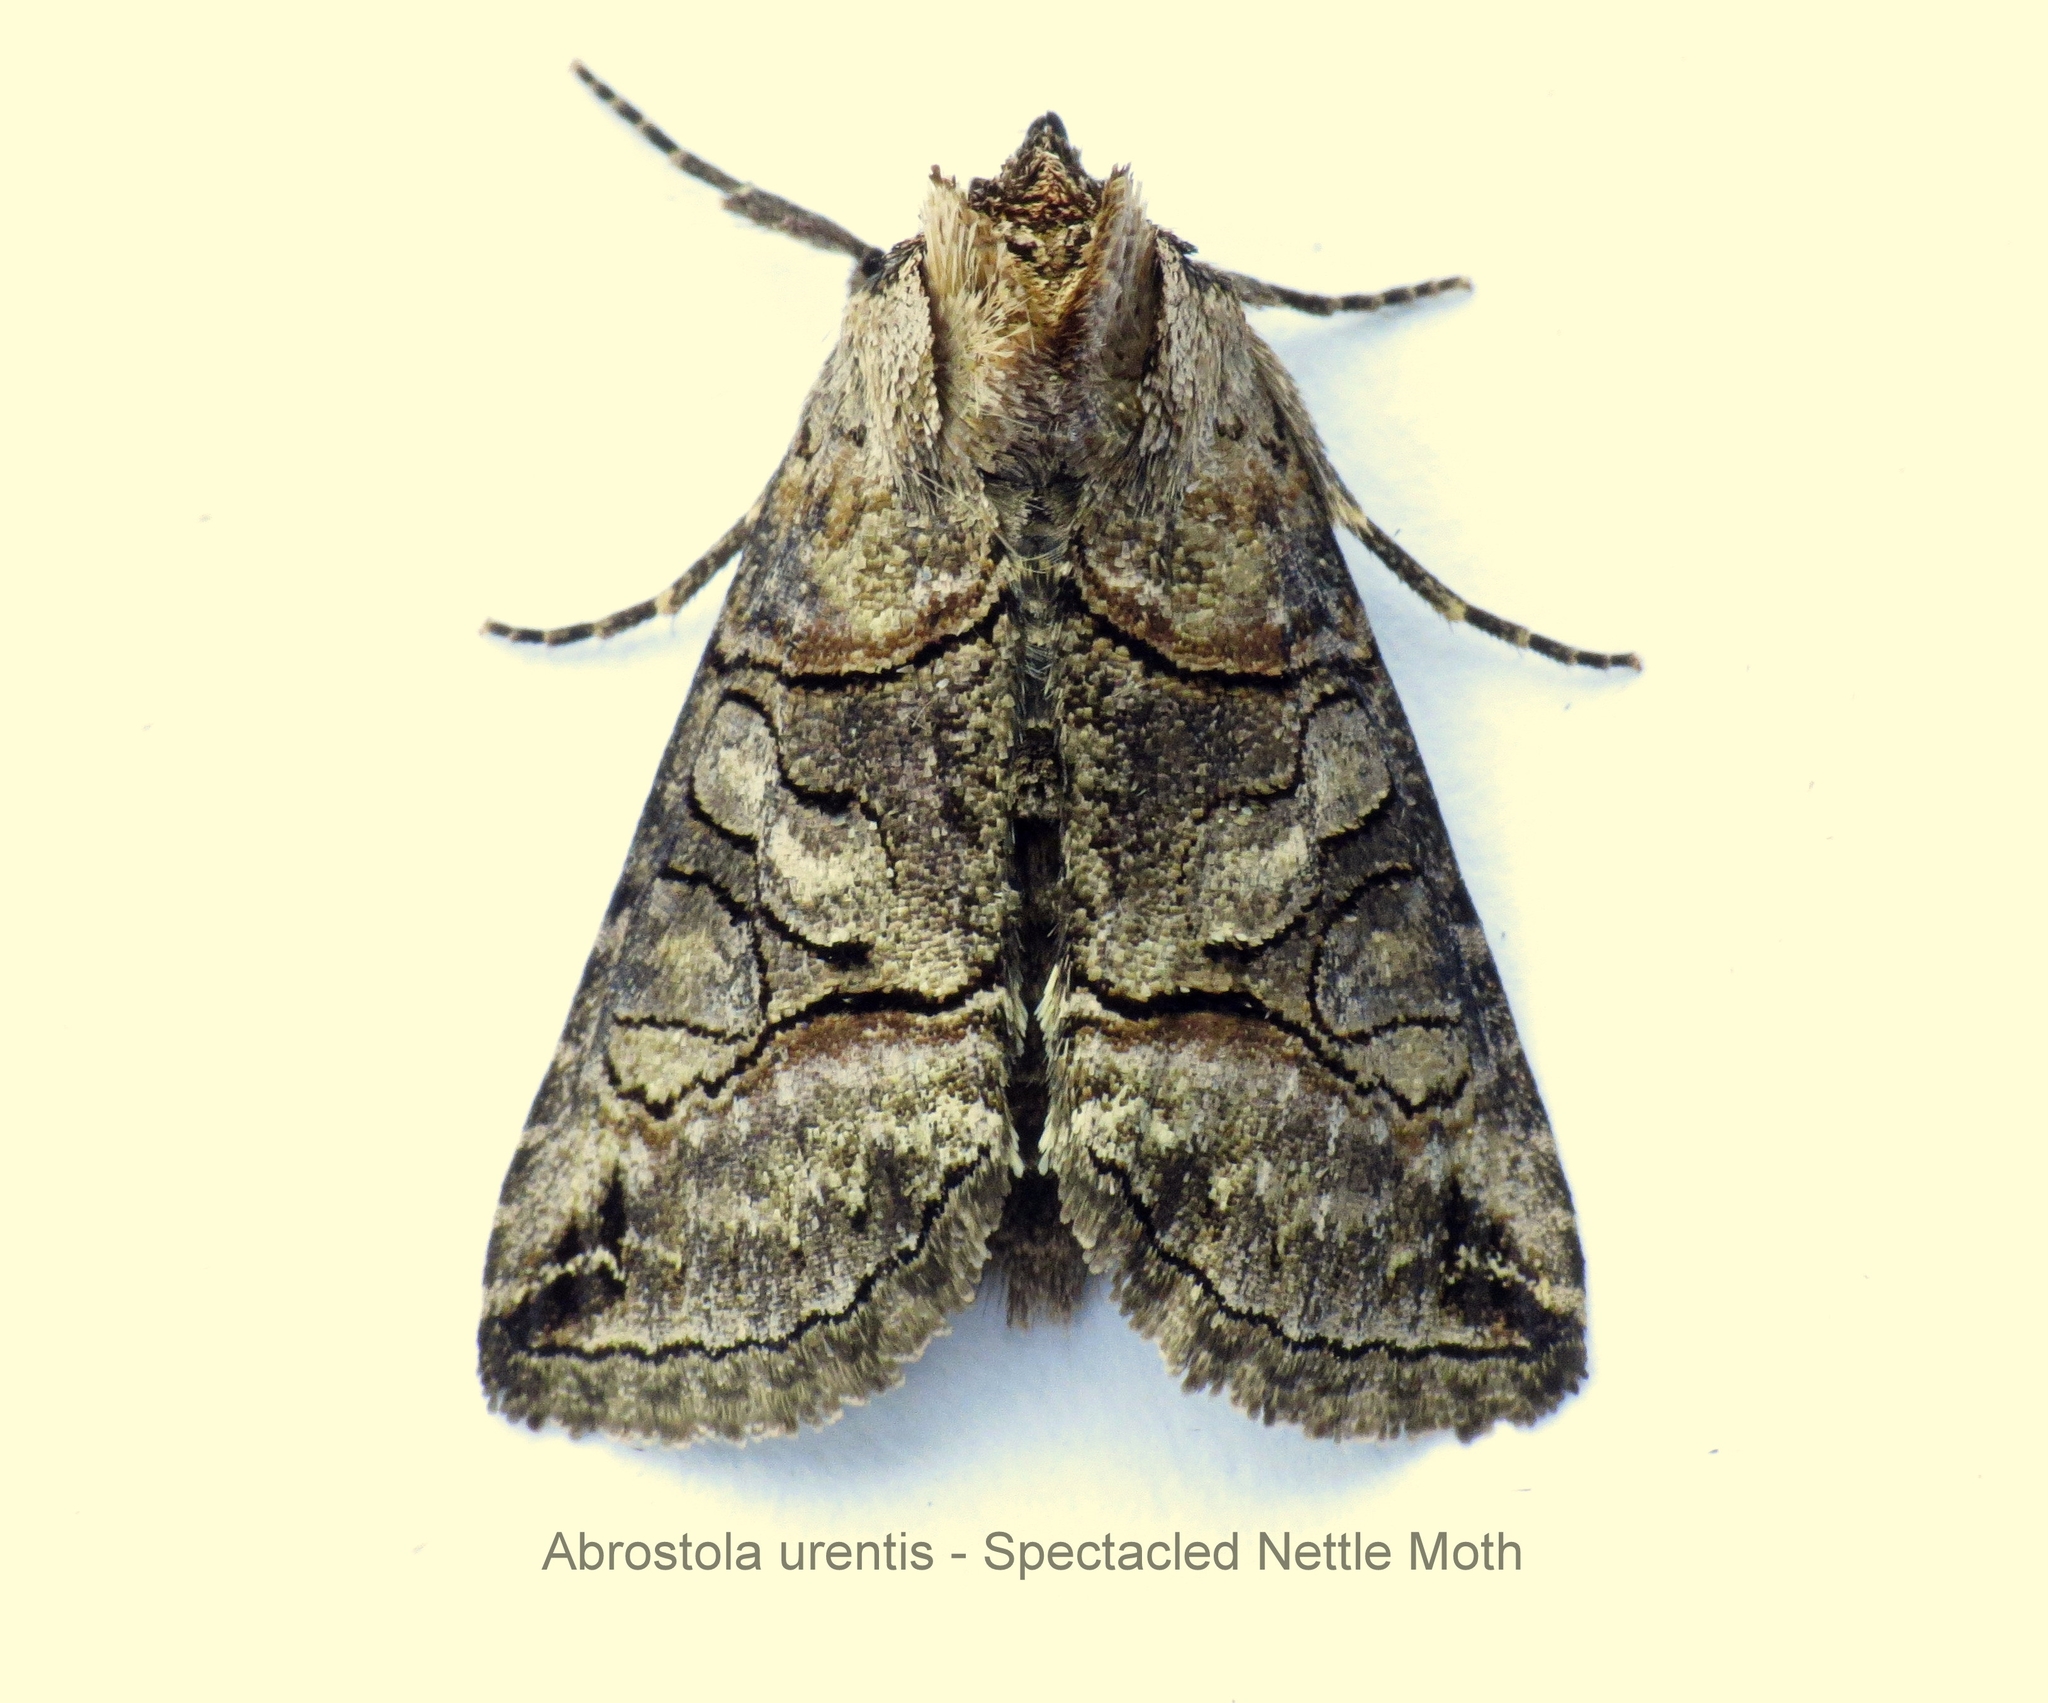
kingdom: Animalia
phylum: Arthropoda
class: Insecta
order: Lepidoptera
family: Noctuidae
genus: Abrostola
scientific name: Abrostola urentis
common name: Spectacled nettle moth
